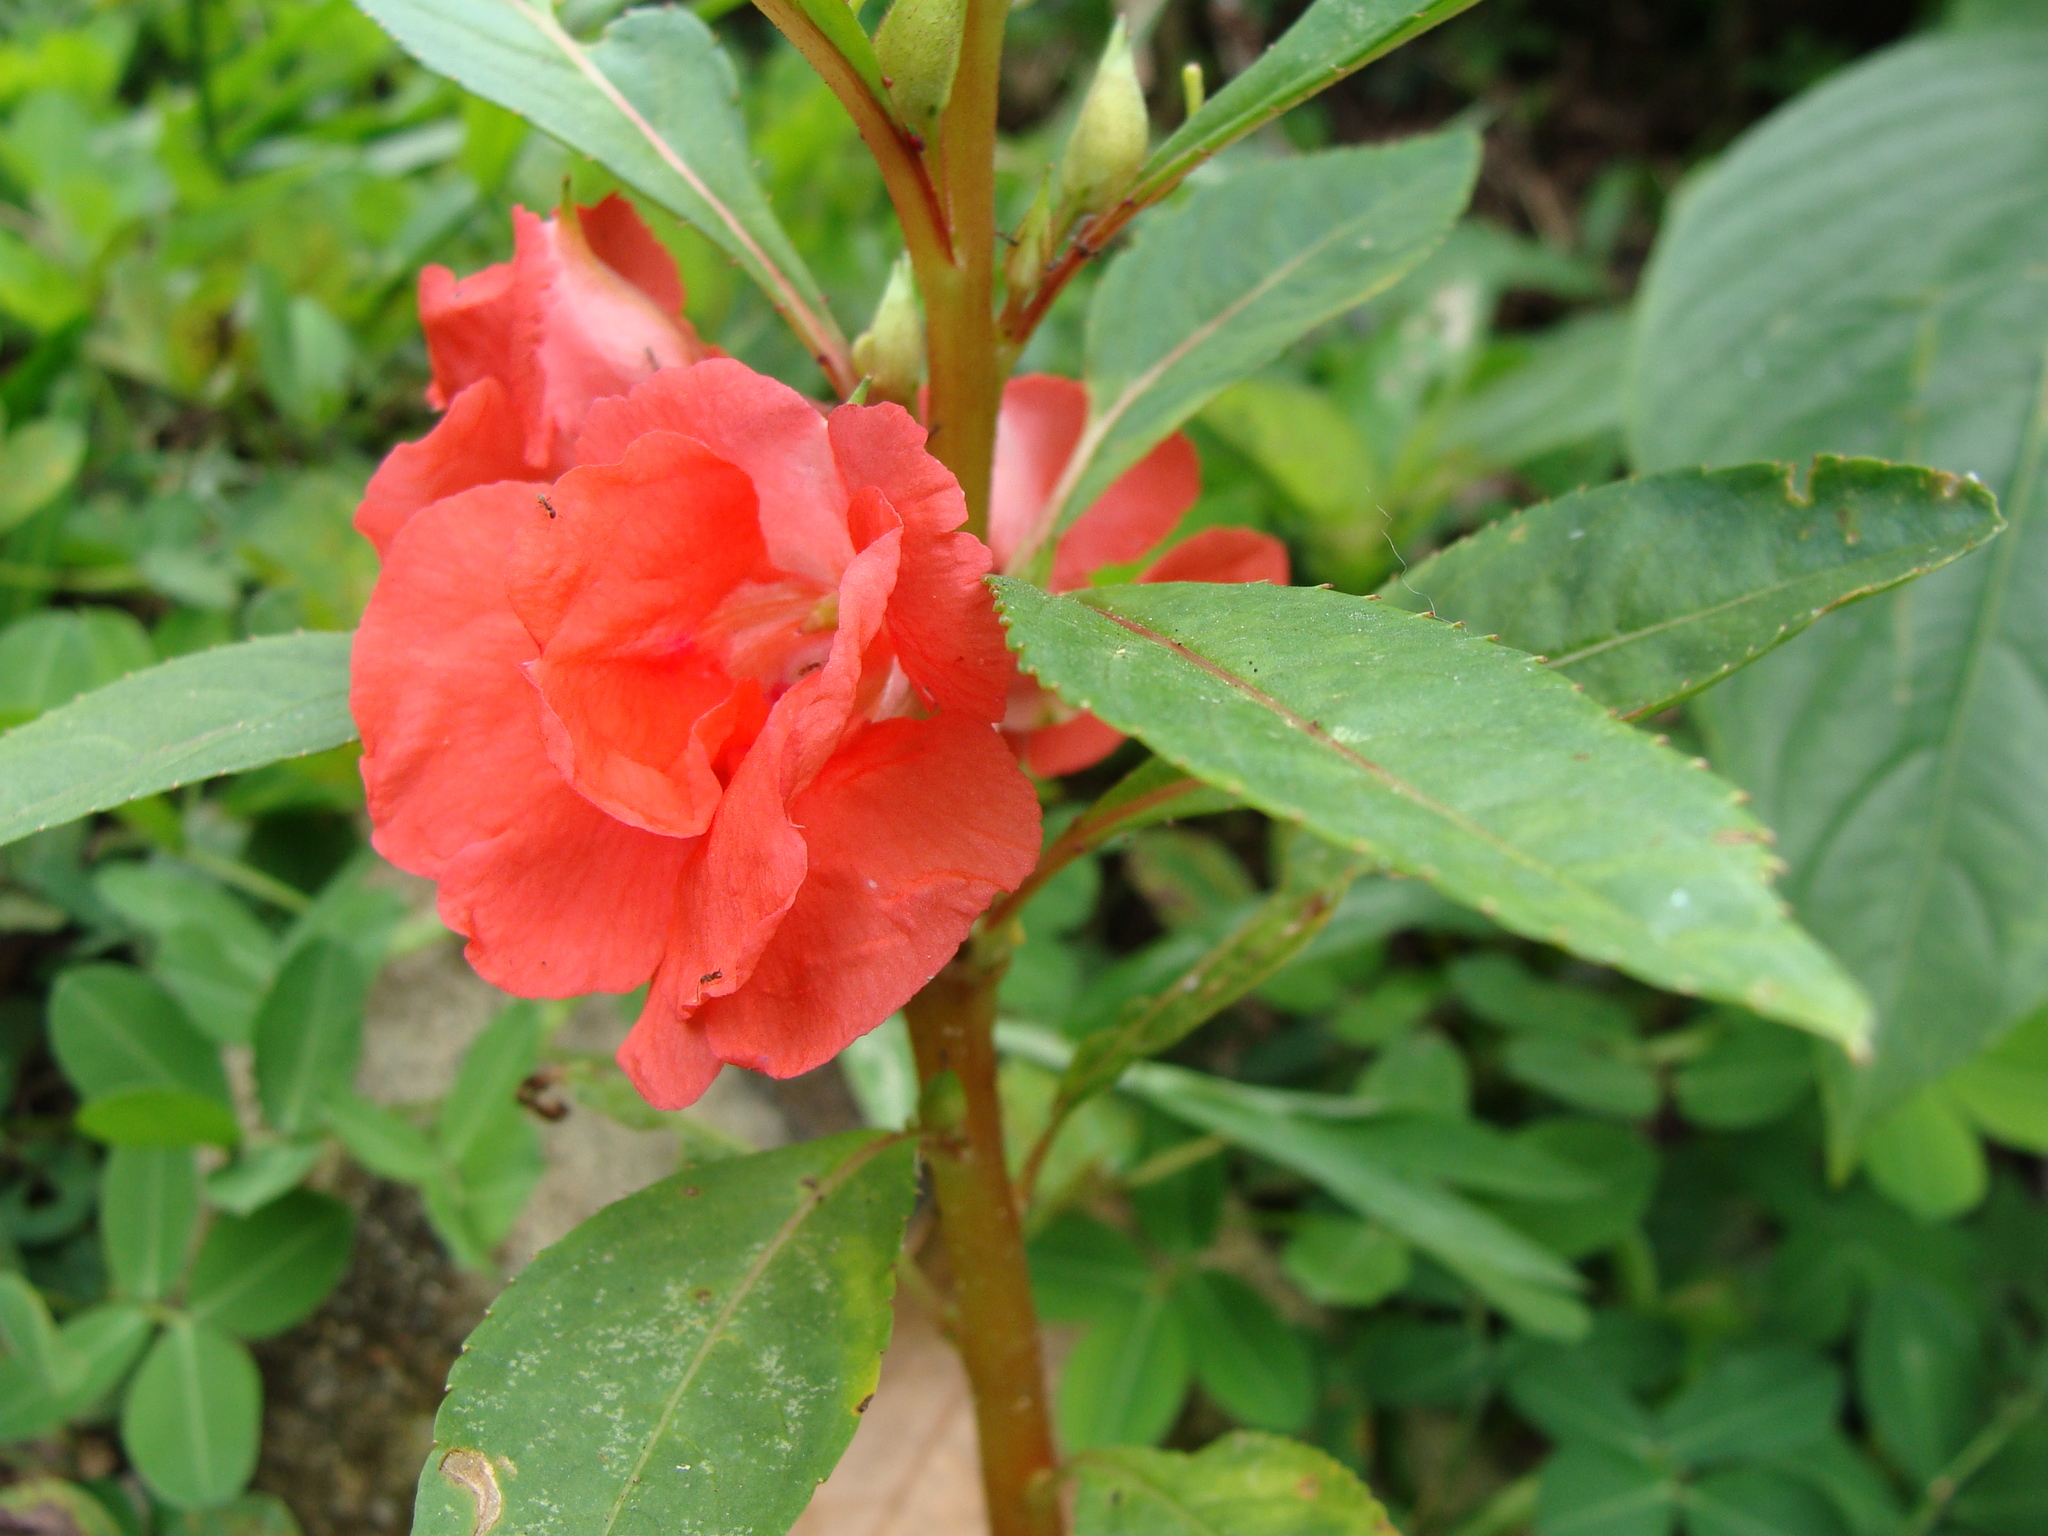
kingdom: Plantae
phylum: Tracheophyta
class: Magnoliopsida
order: Ericales
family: Balsaminaceae
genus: Impatiens
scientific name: Impatiens balsamina
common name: Balsam
